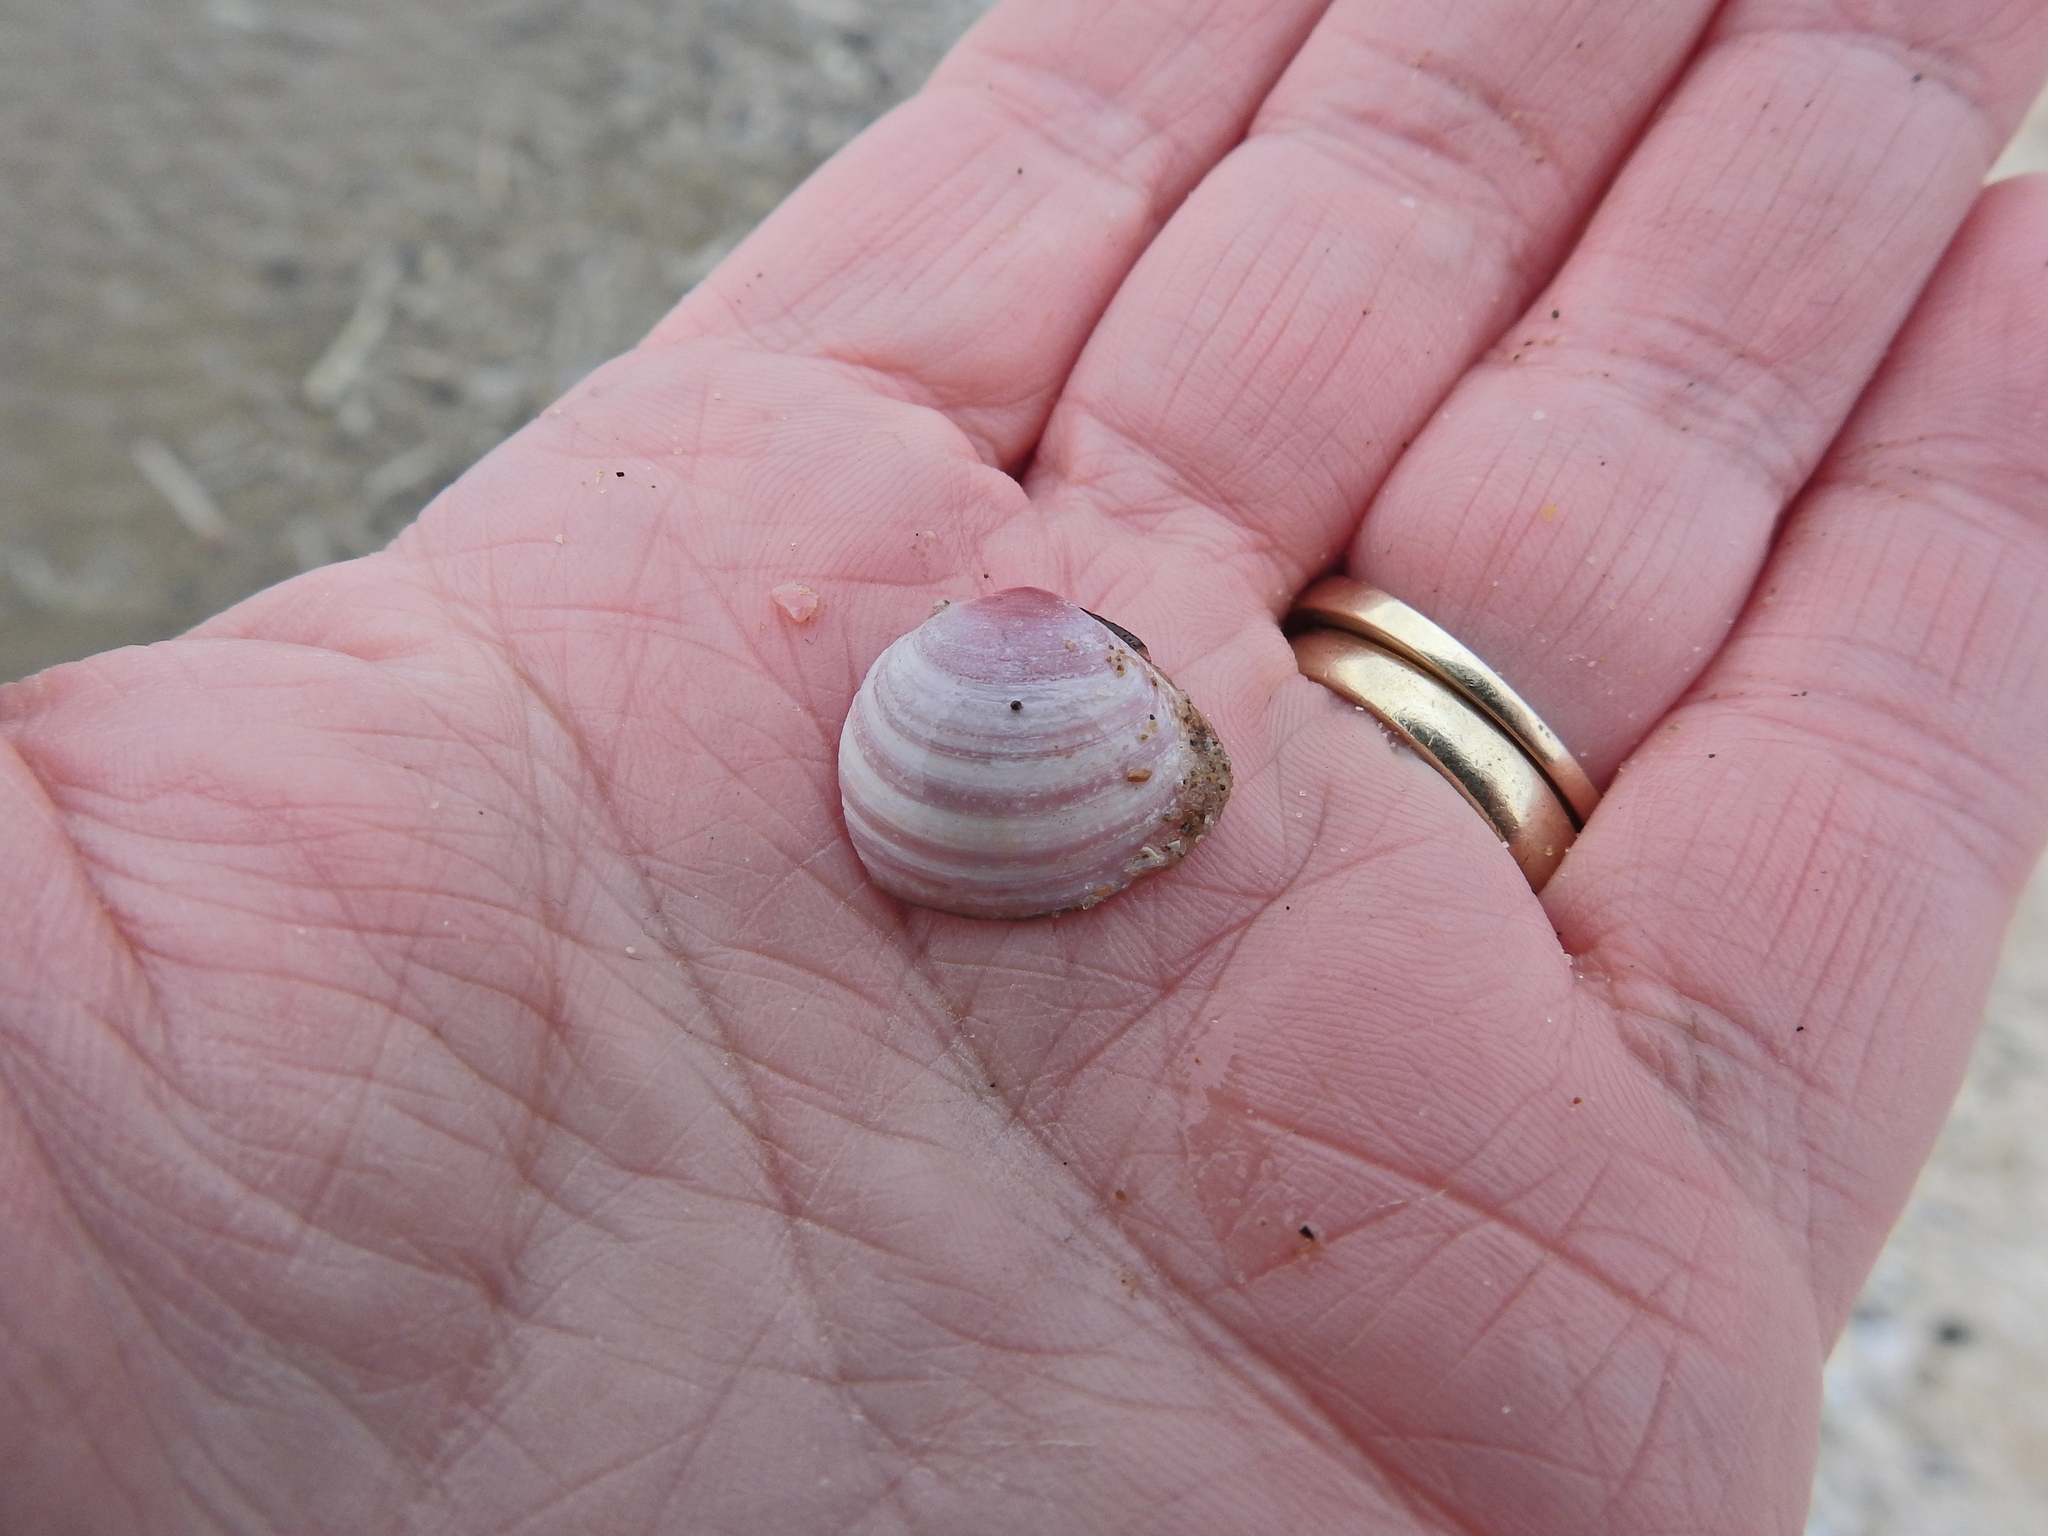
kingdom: Animalia
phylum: Mollusca
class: Bivalvia
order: Cardiida
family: Tellinidae
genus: Macoma
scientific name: Macoma balthica
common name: Baltic tellin
